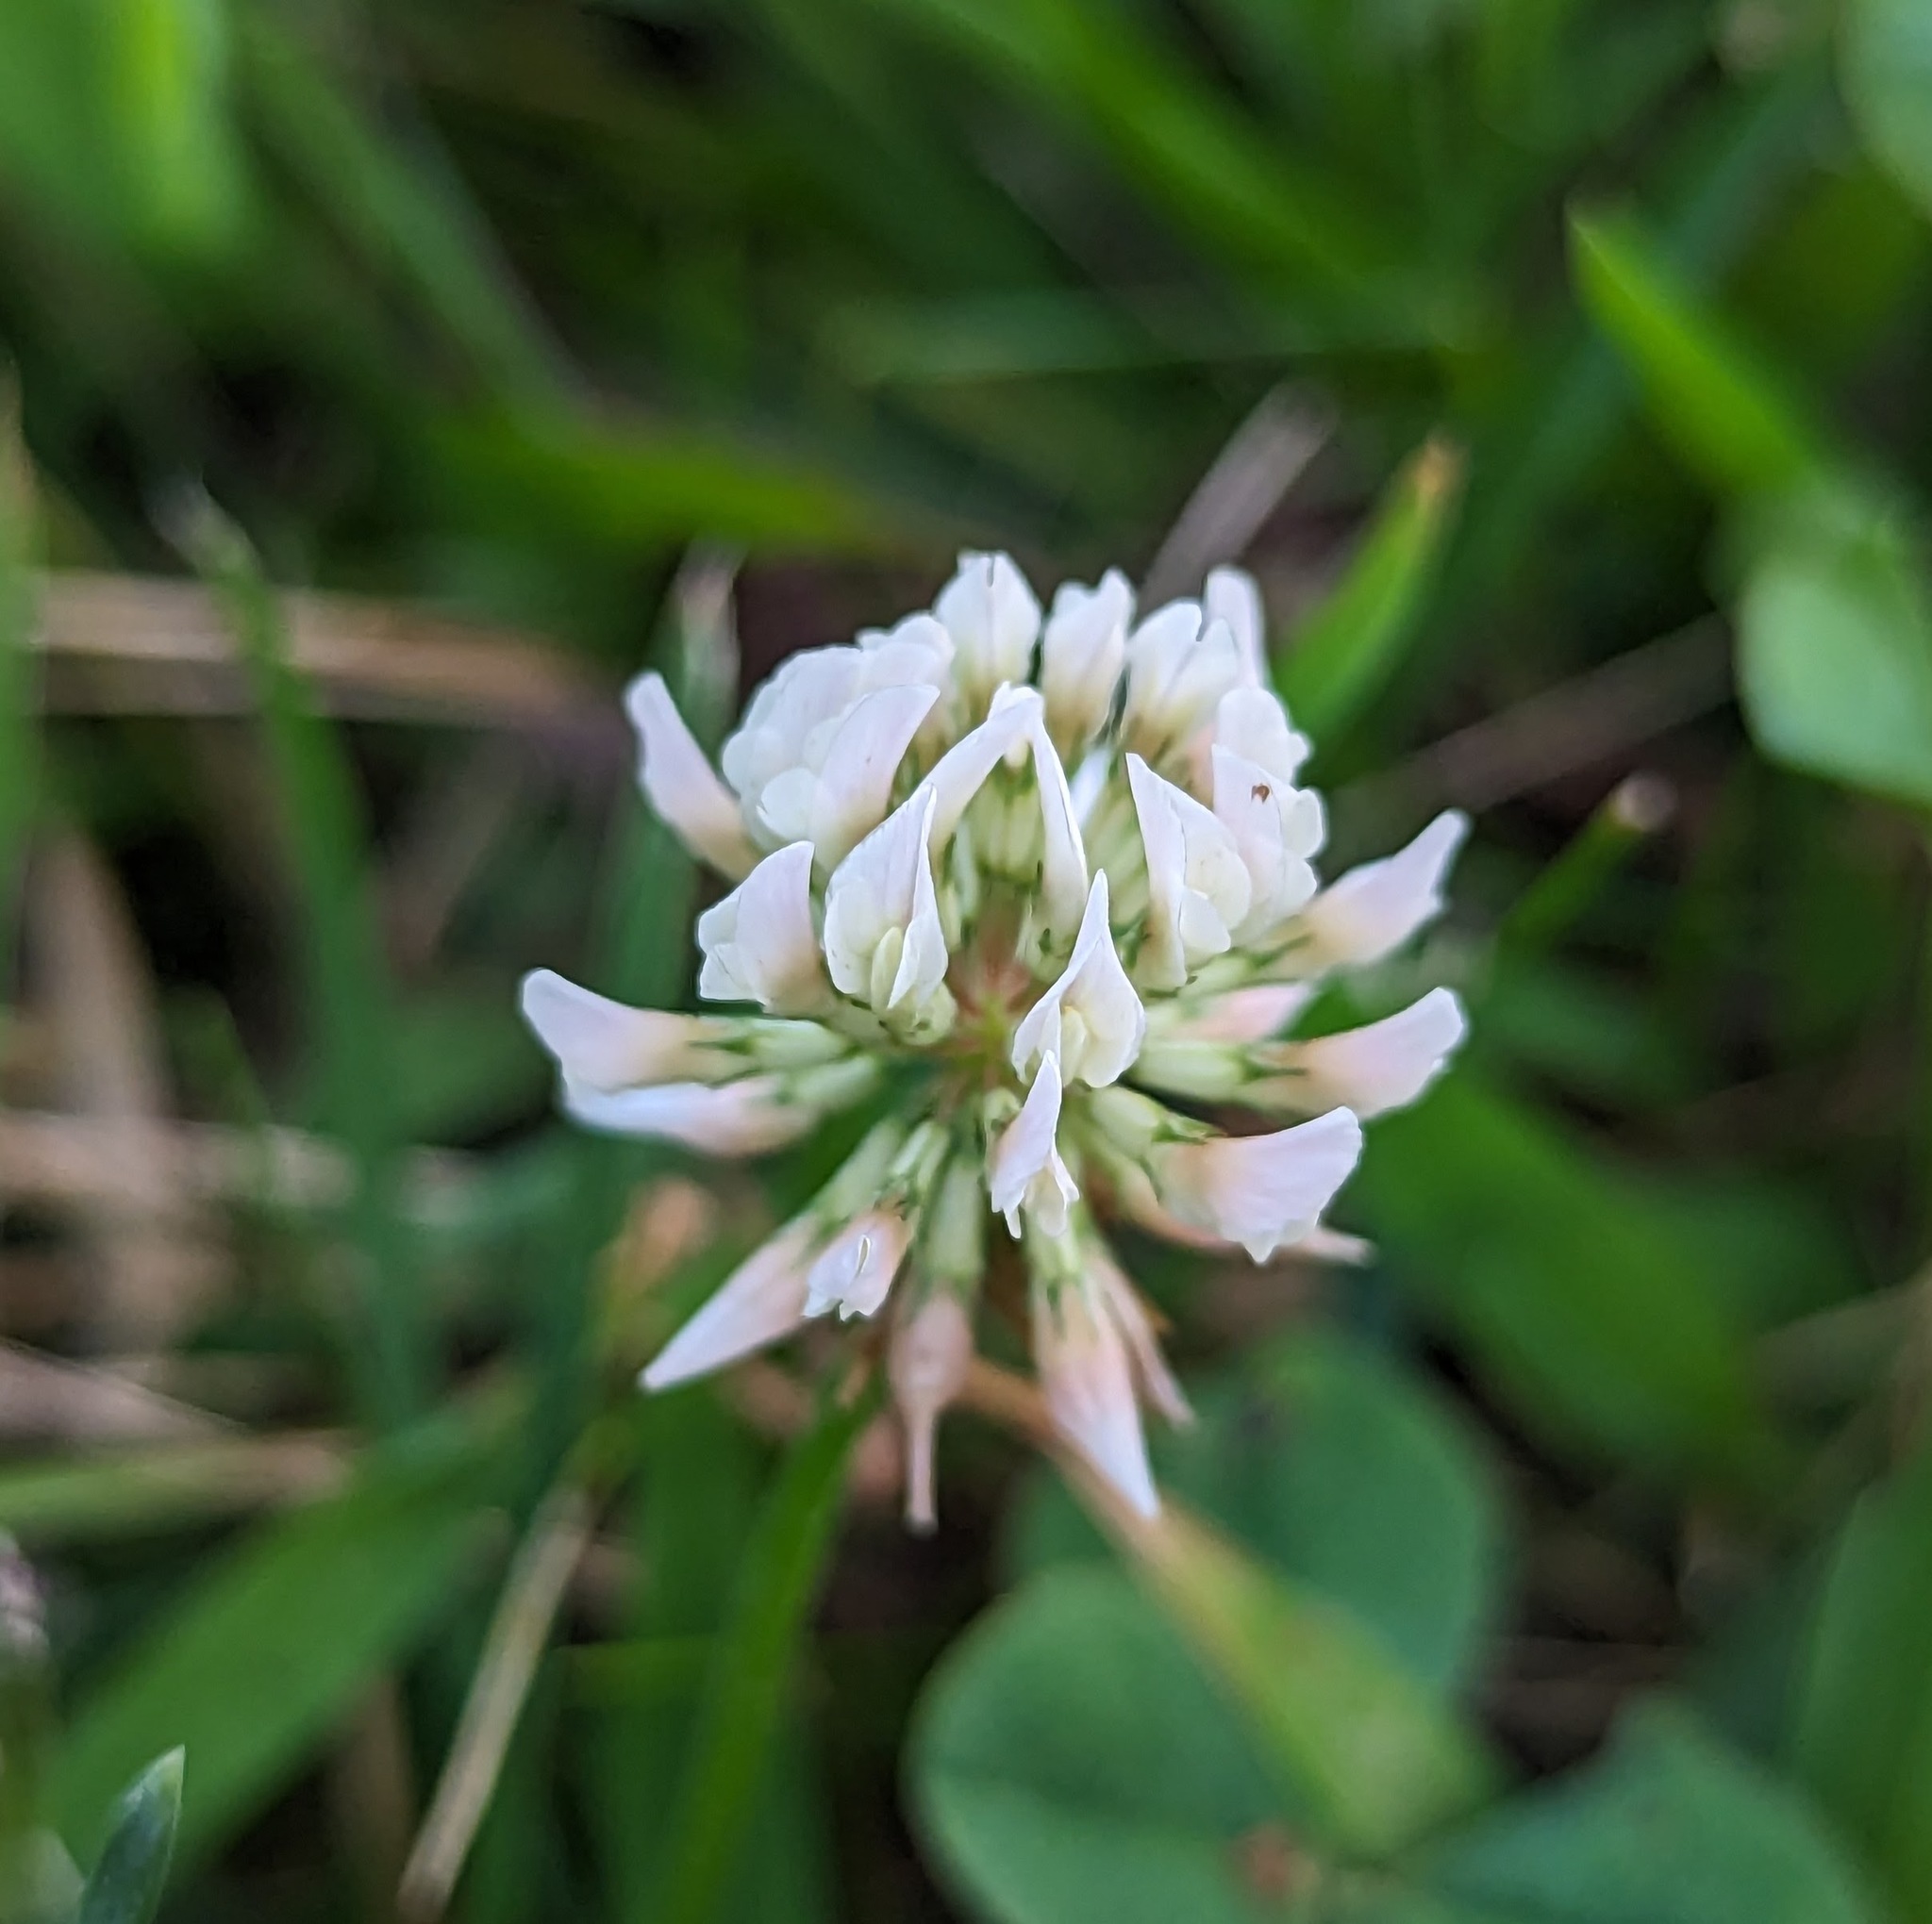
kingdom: Plantae
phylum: Tracheophyta
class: Magnoliopsida
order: Fabales
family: Fabaceae
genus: Trifolium
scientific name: Trifolium repens
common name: White clover
